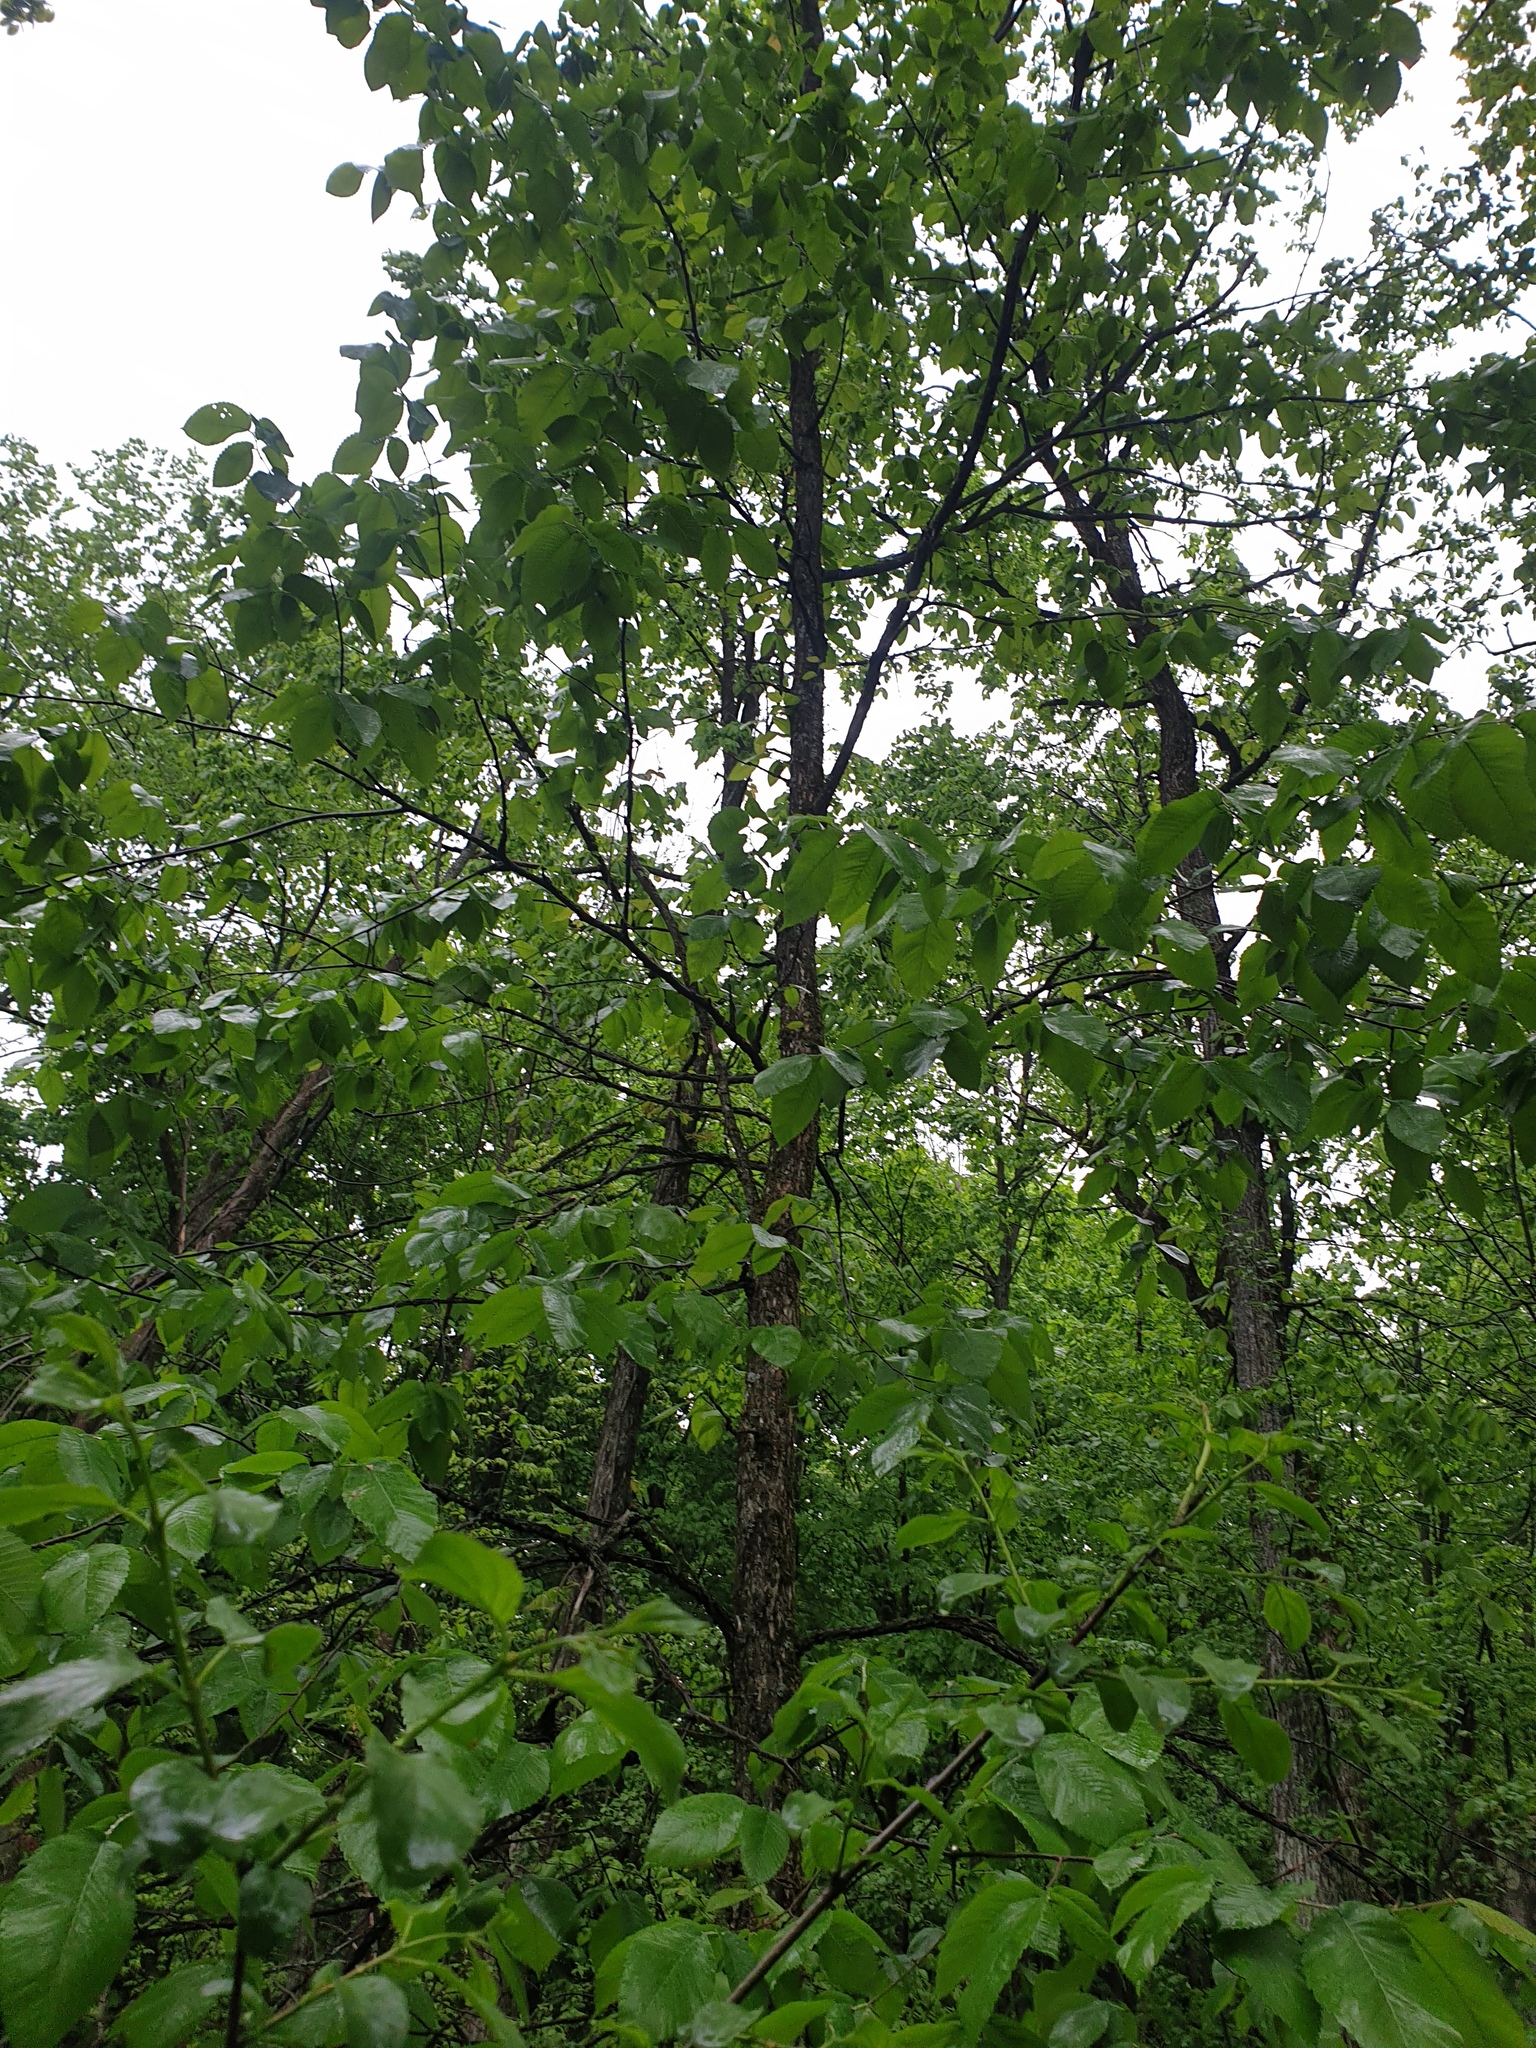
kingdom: Plantae
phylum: Tracheophyta
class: Magnoliopsida
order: Rosales
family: Ulmaceae
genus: Ulmus
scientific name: Ulmus thomasii
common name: Rock elm
